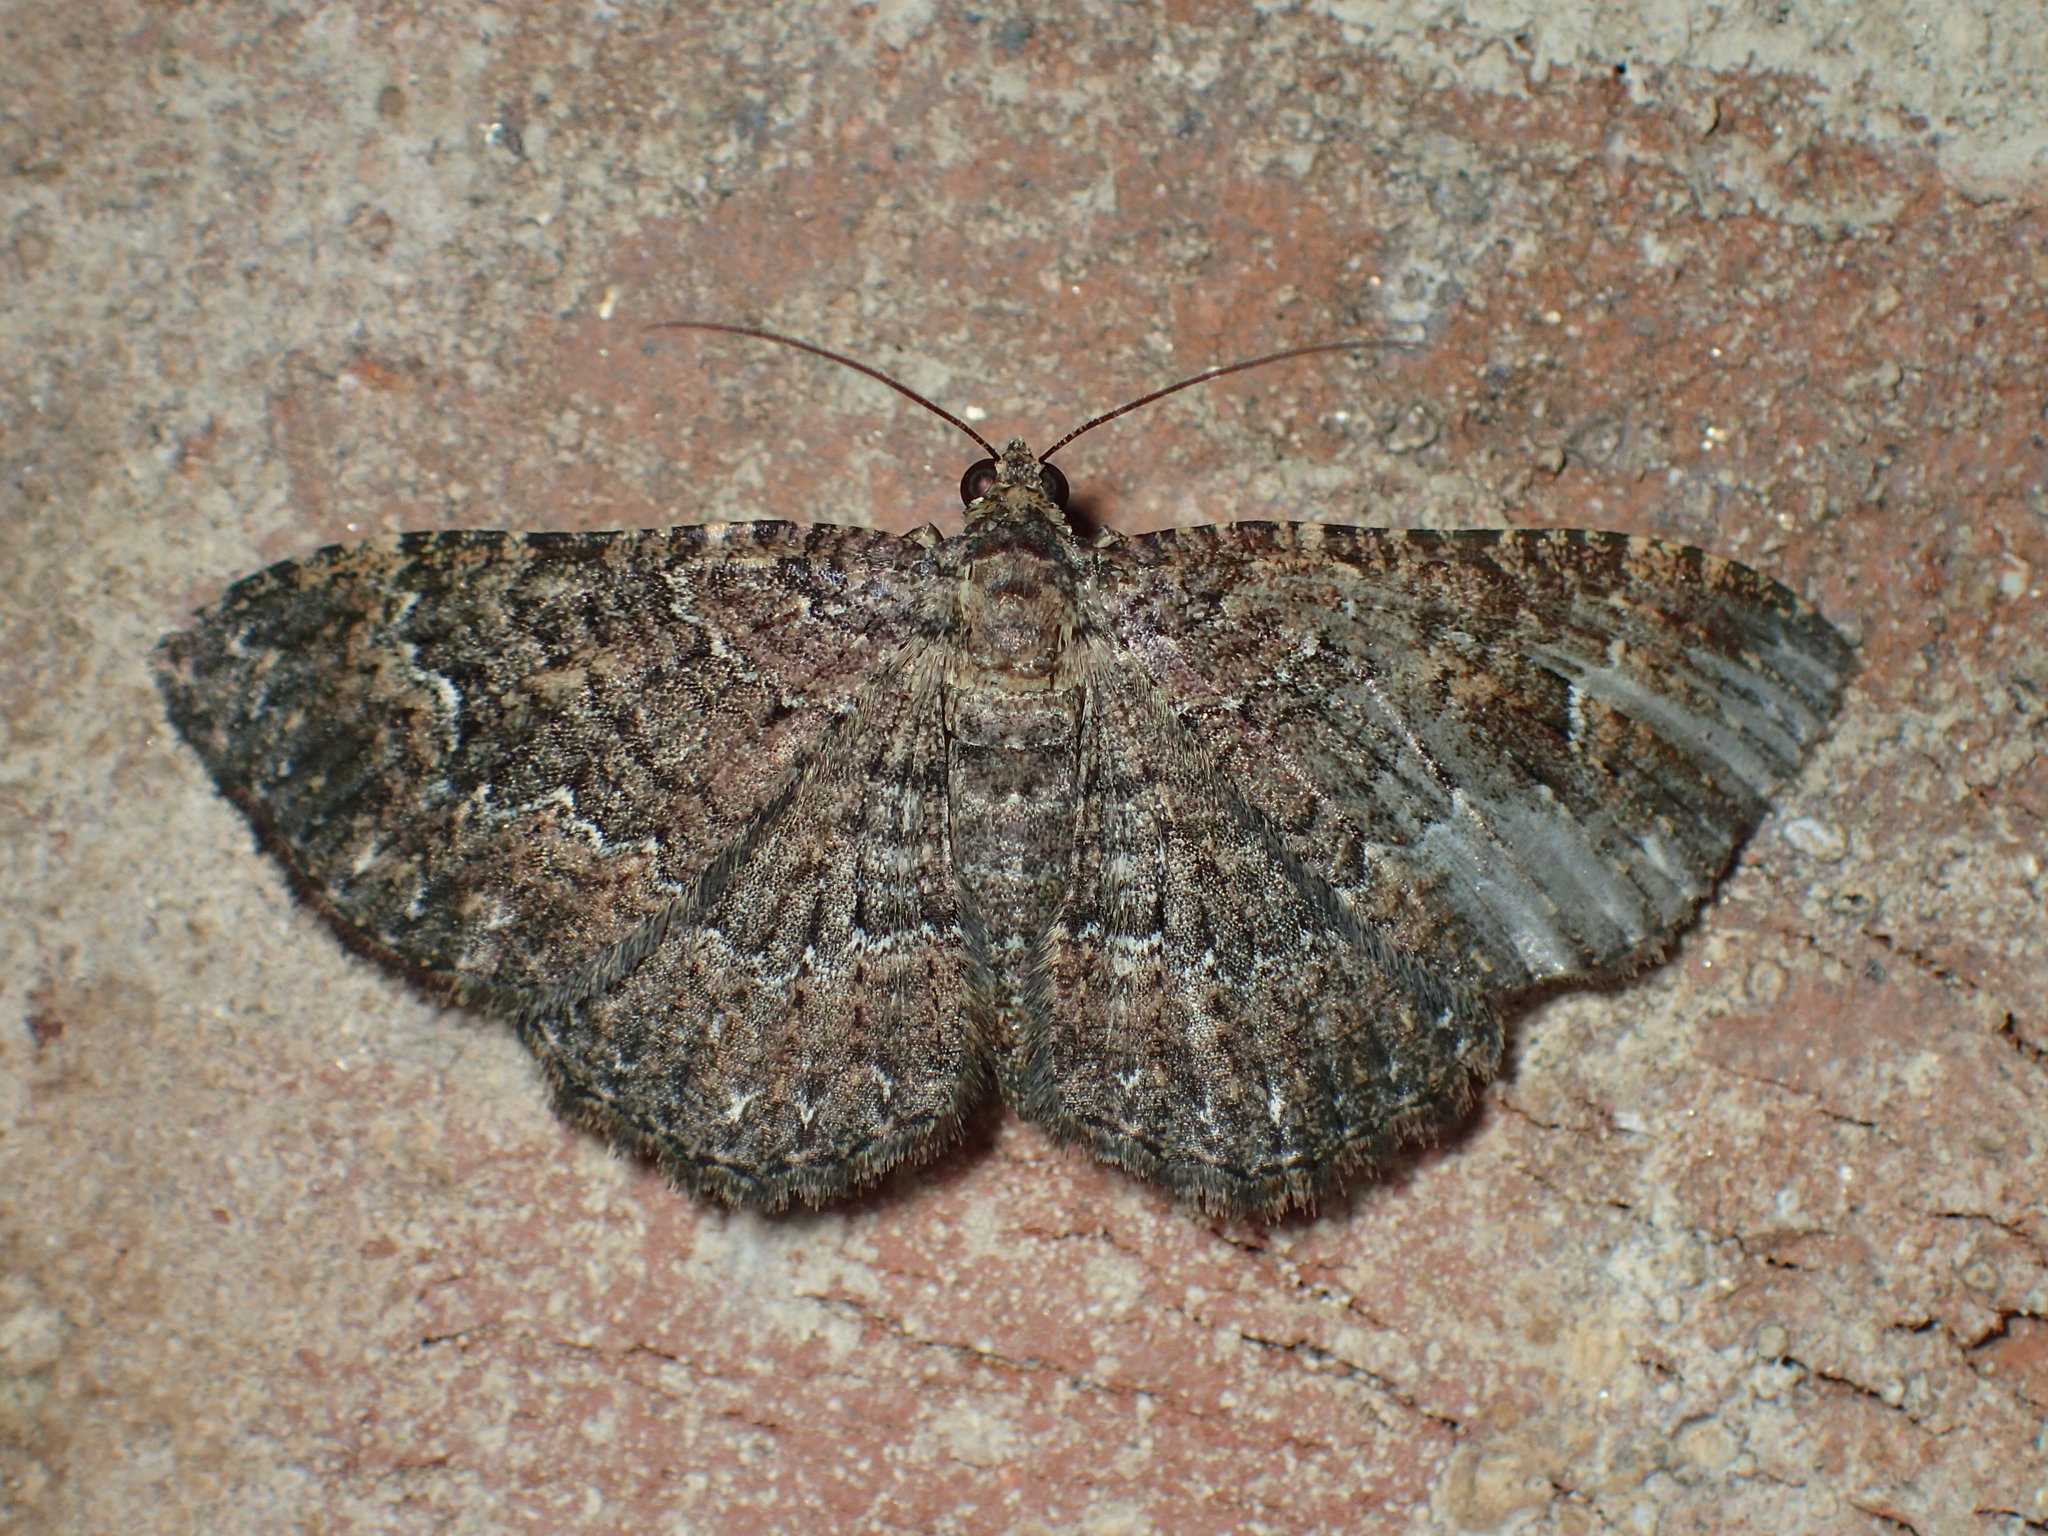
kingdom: Animalia
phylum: Arthropoda
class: Insecta
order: Lepidoptera
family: Geometridae
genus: Disclisioprocta
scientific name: Disclisioprocta stellata
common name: Somber carpet
